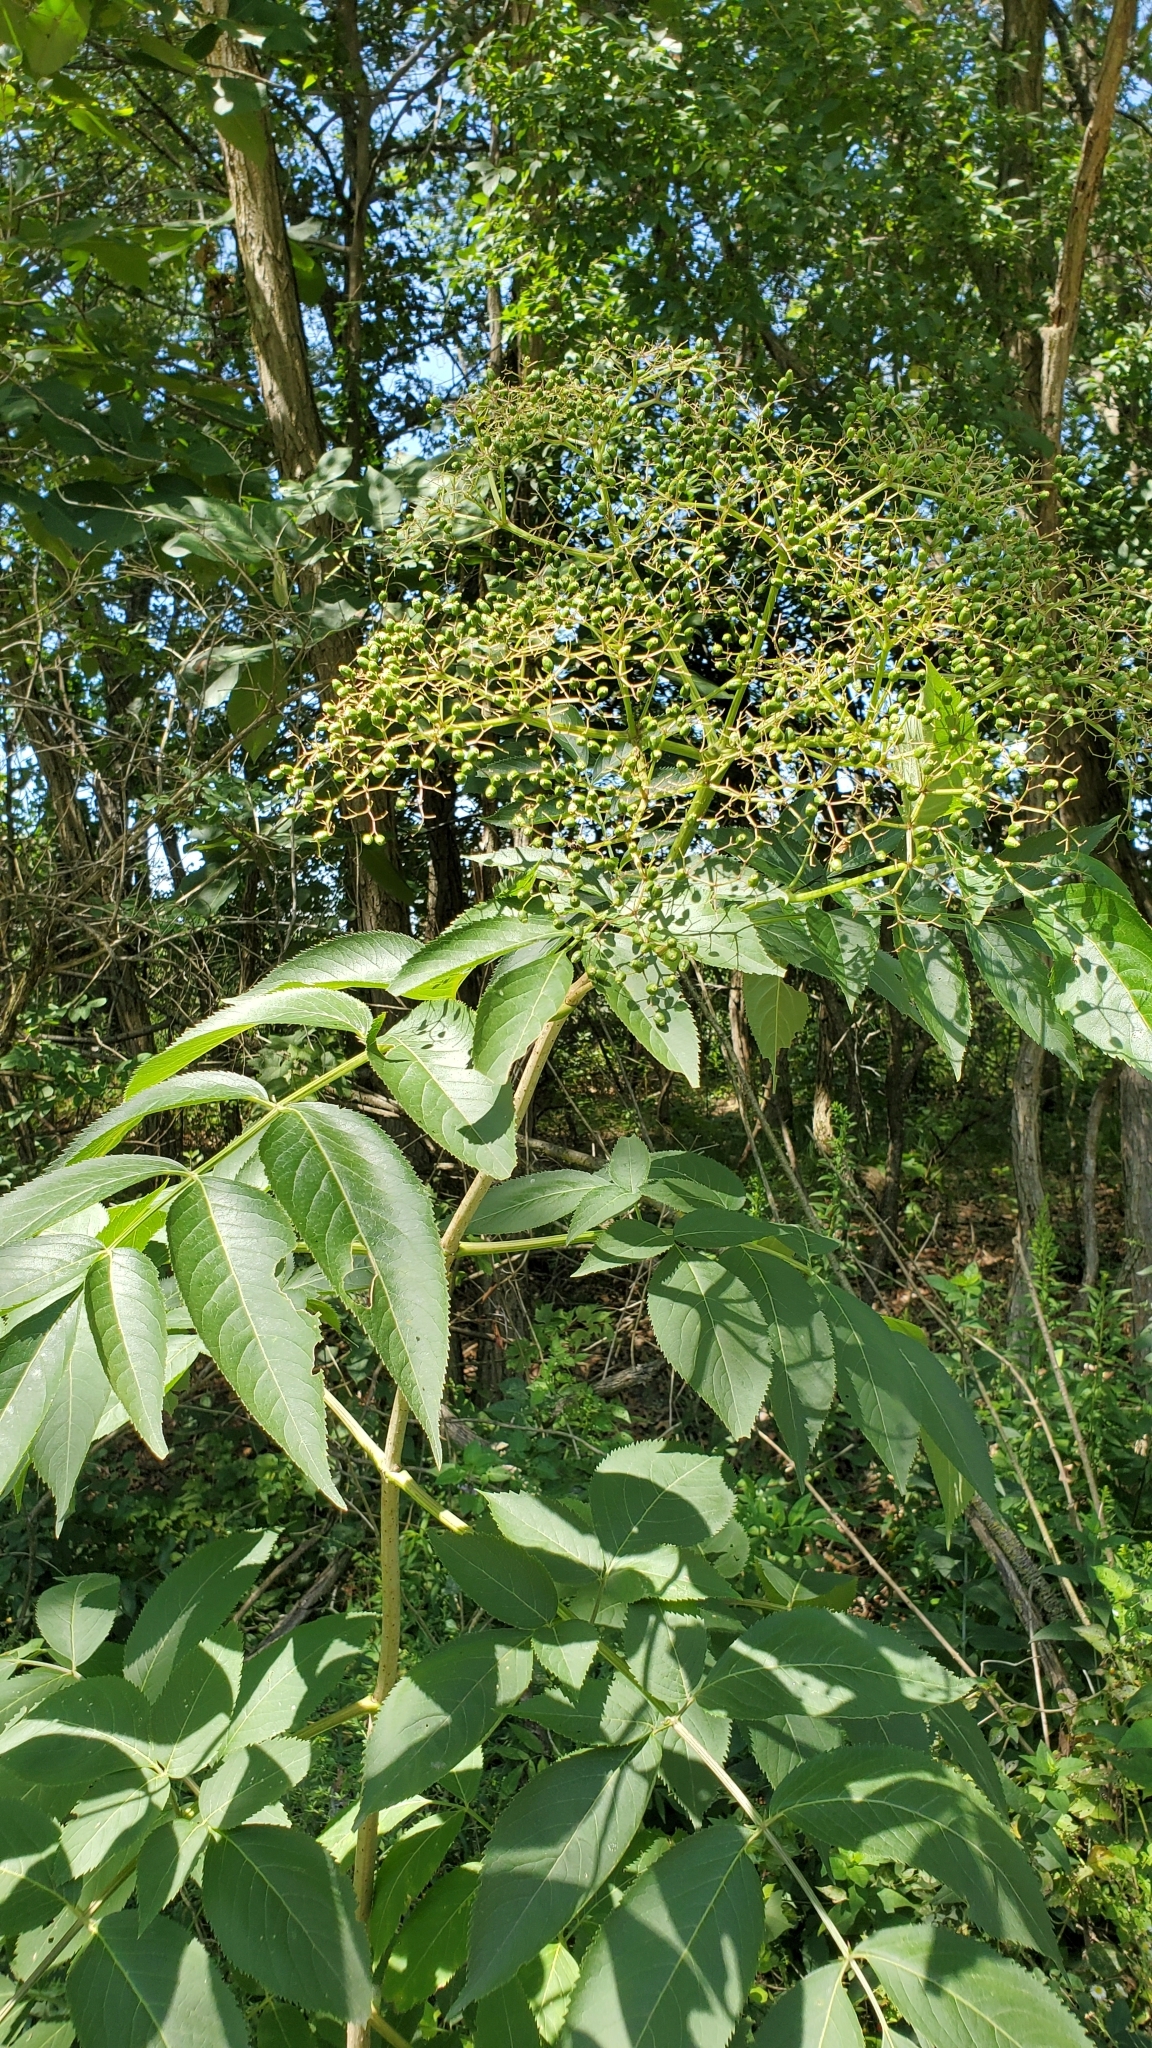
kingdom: Plantae
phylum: Tracheophyta
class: Magnoliopsida
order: Dipsacales
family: Viburnaceae
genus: Sambucus
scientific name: Sambucus canadensis
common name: American elder
